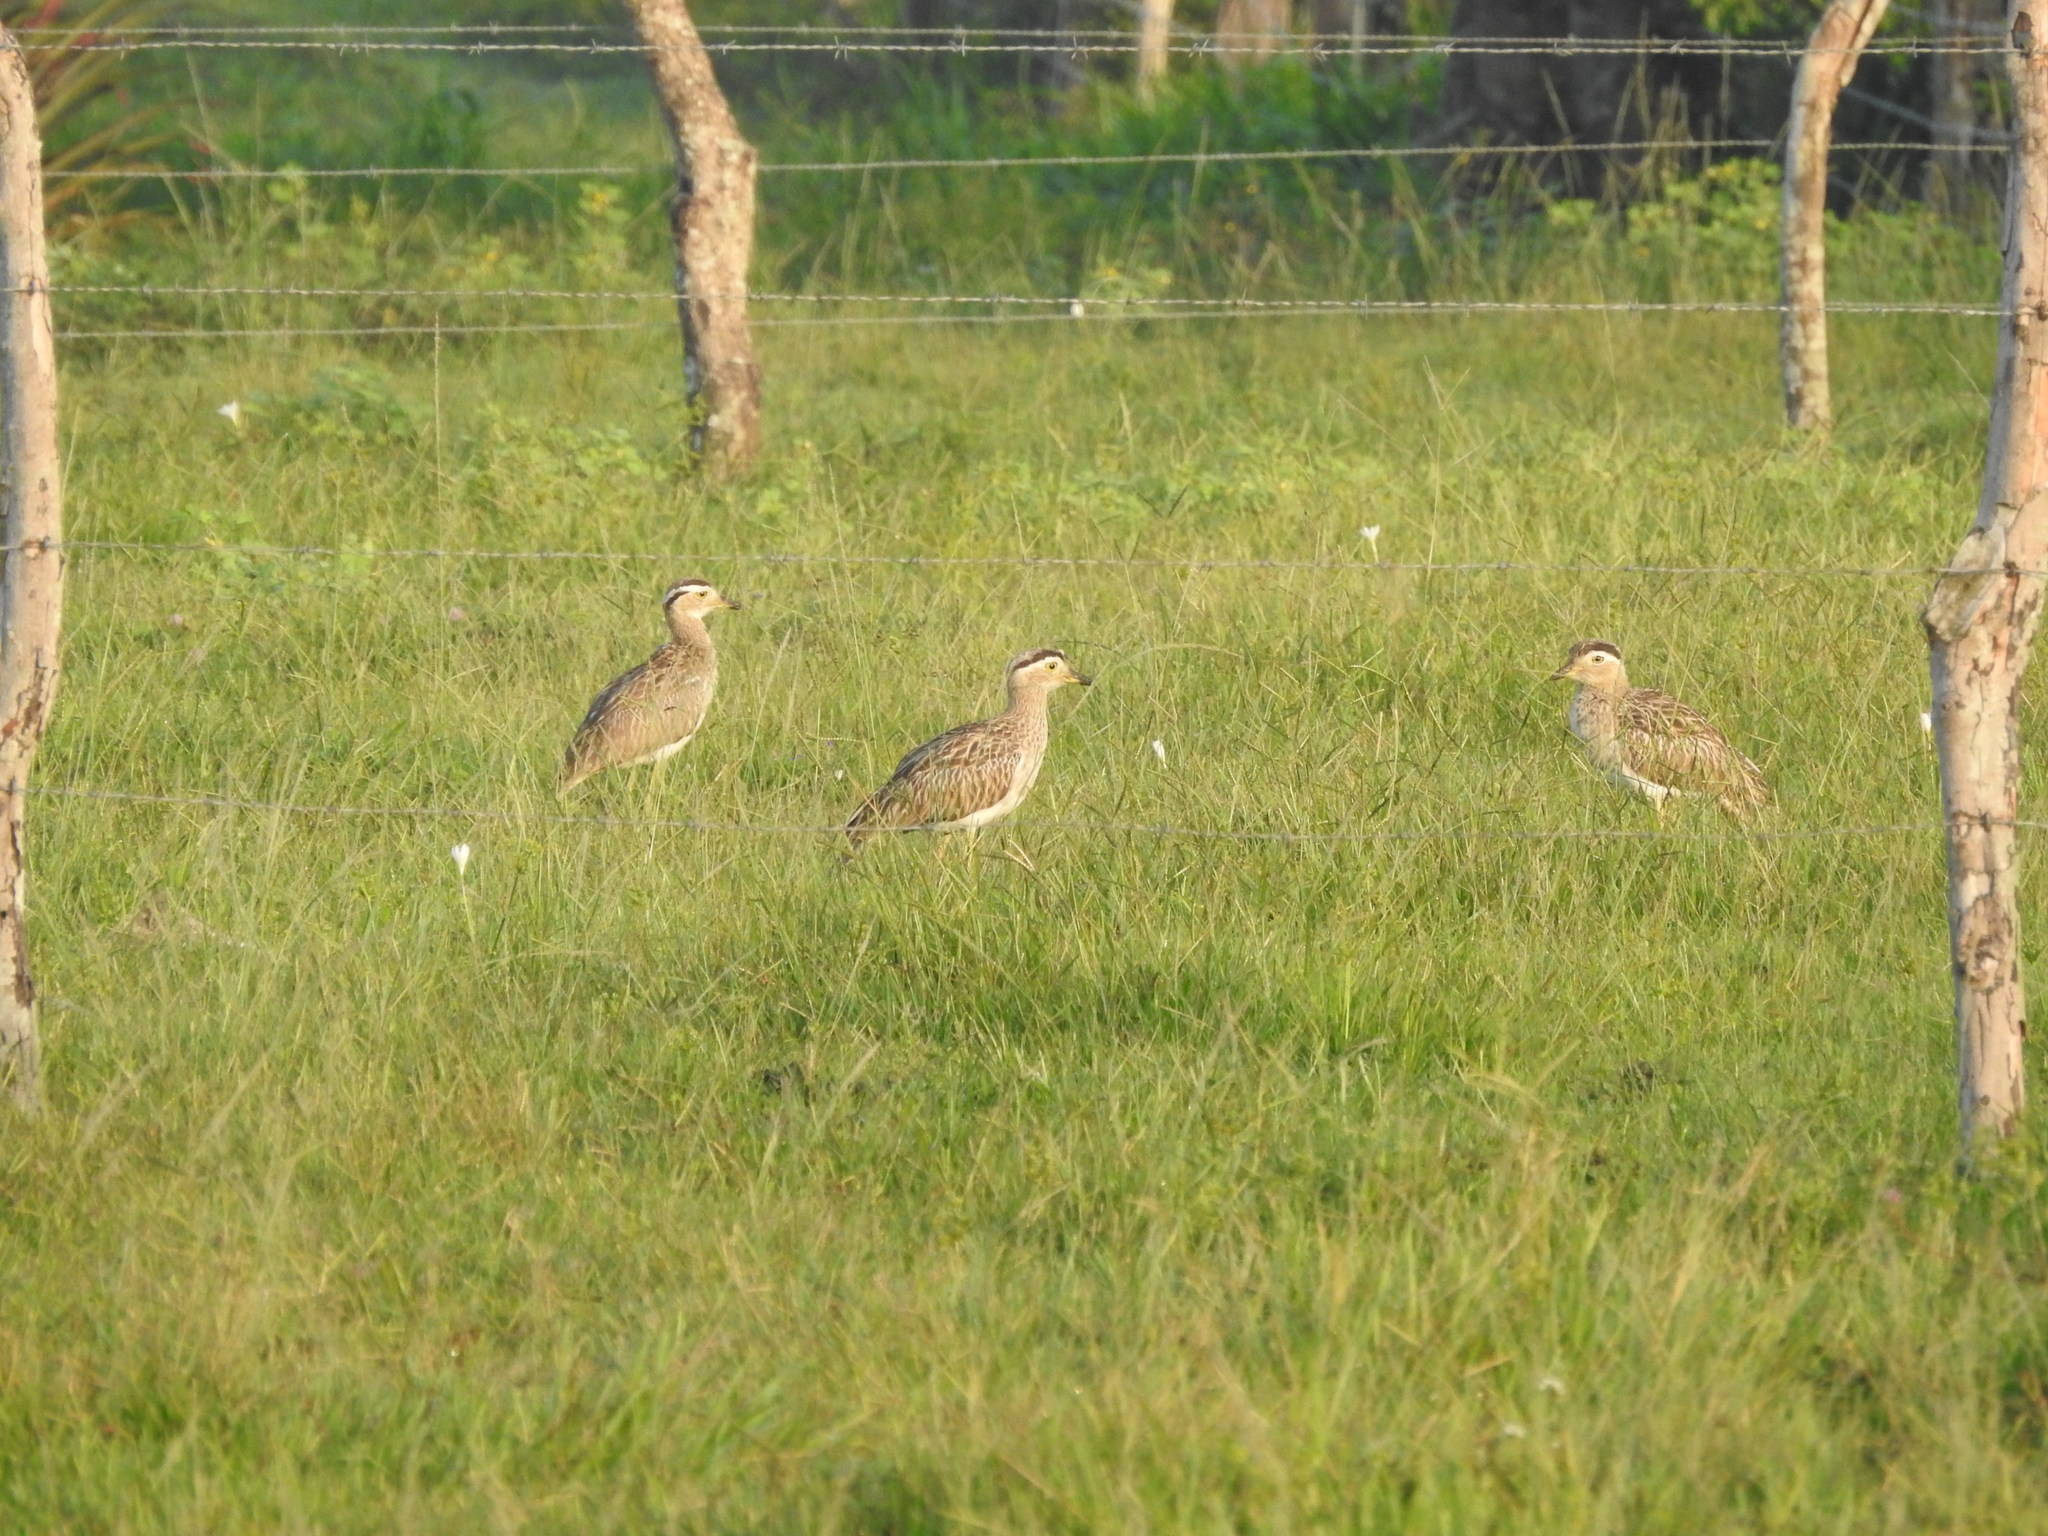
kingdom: Animalia
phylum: Chordata
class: Aves
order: Charadriiformes
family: Burhinidae
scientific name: Burhinidae
